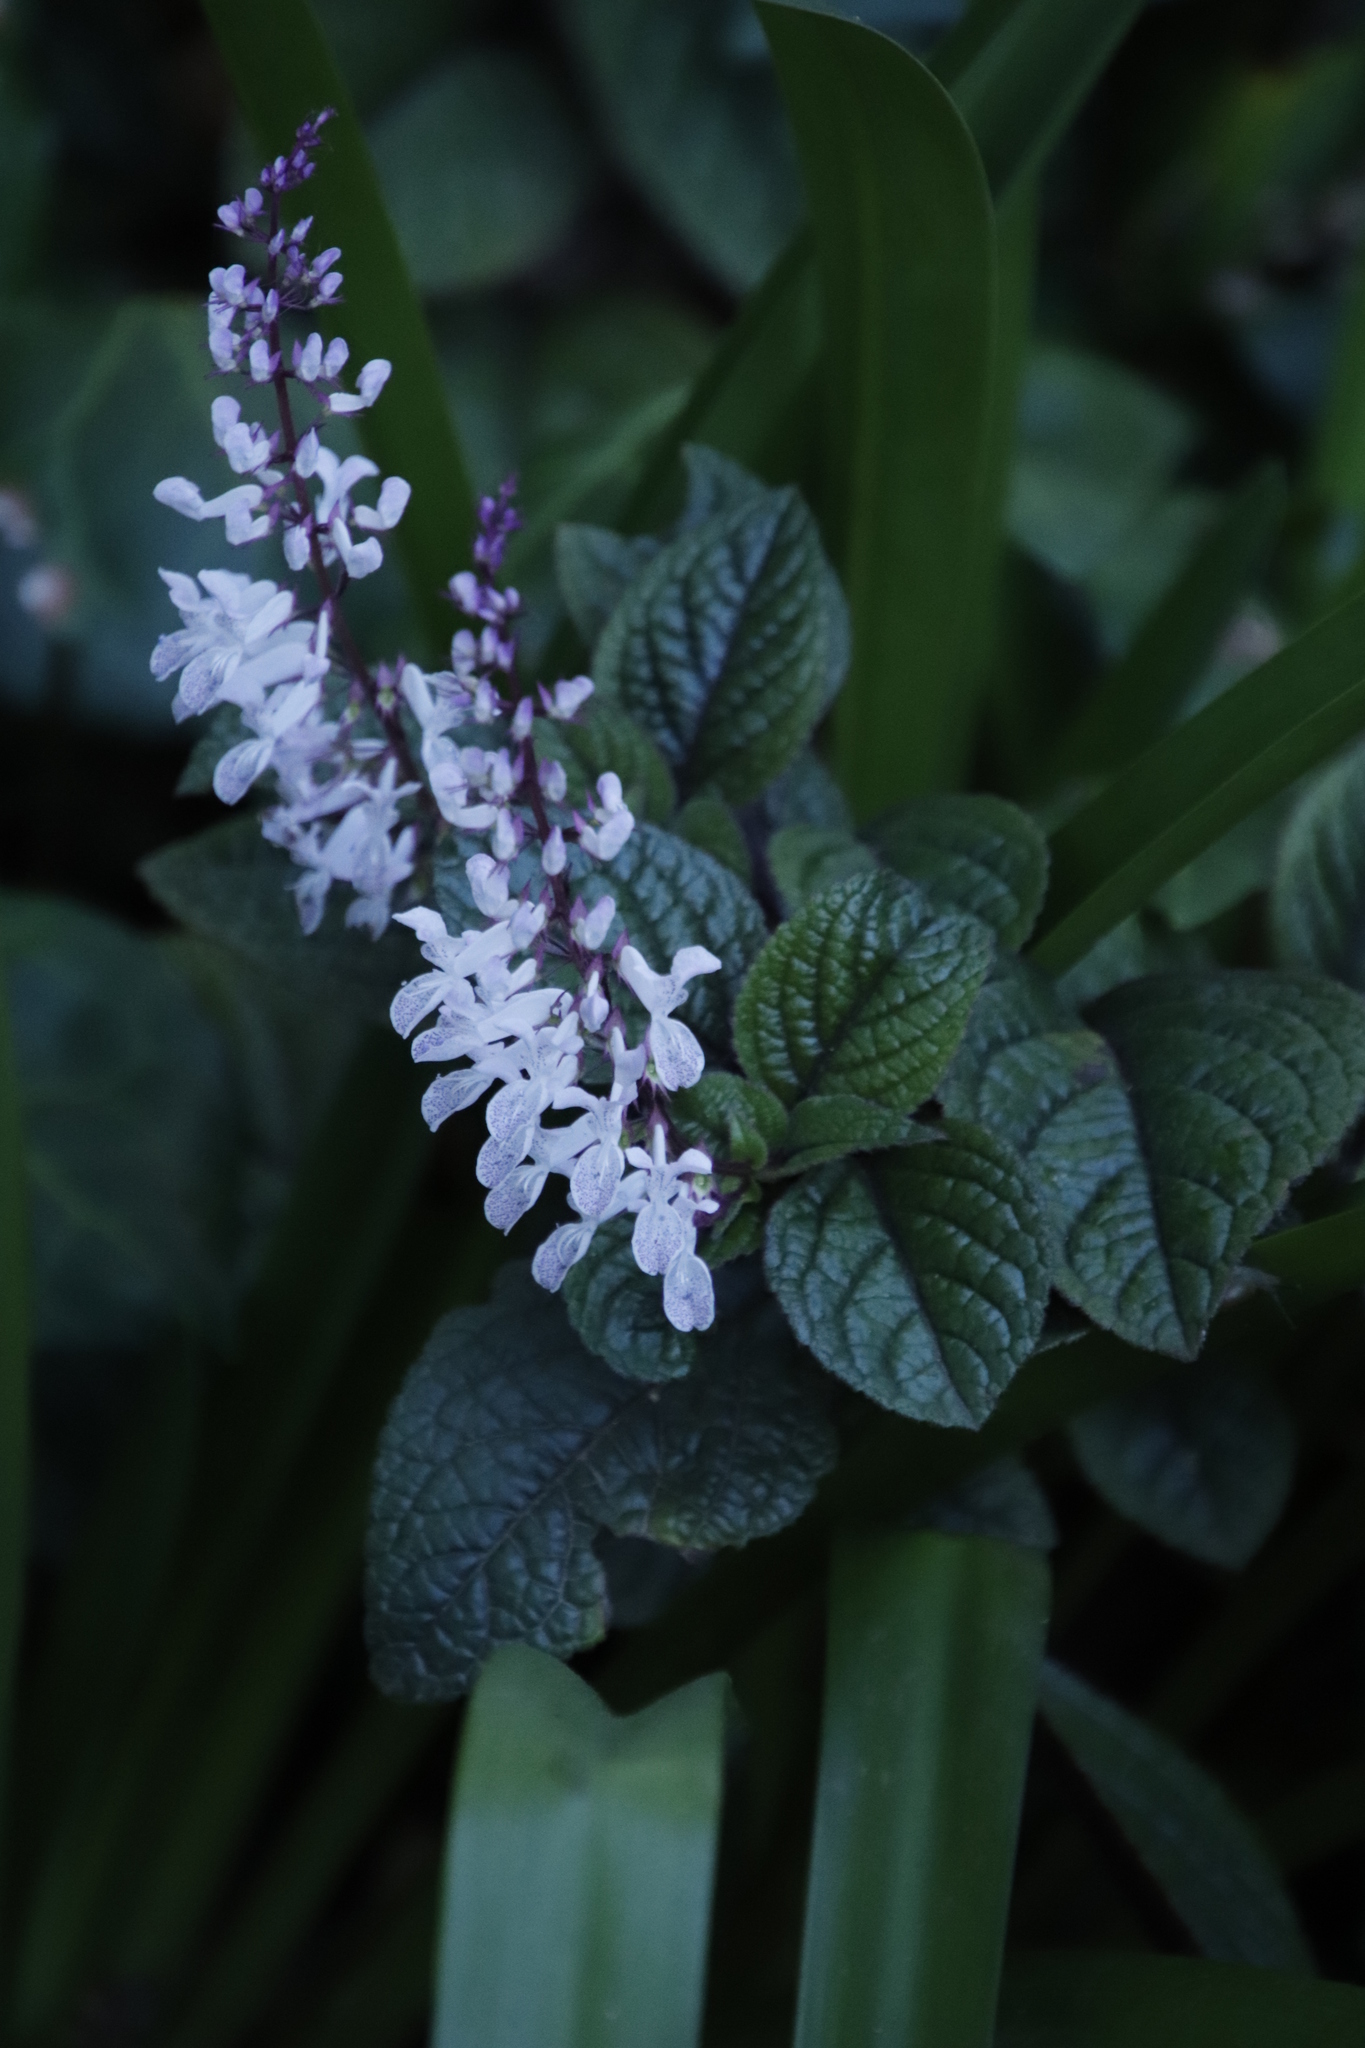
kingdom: Plantae
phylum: Tracheophyta
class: Magnoliopsida
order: Lamiales
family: Lamiaceae
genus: Plectranthus
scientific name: Plectranthus ciliatus
